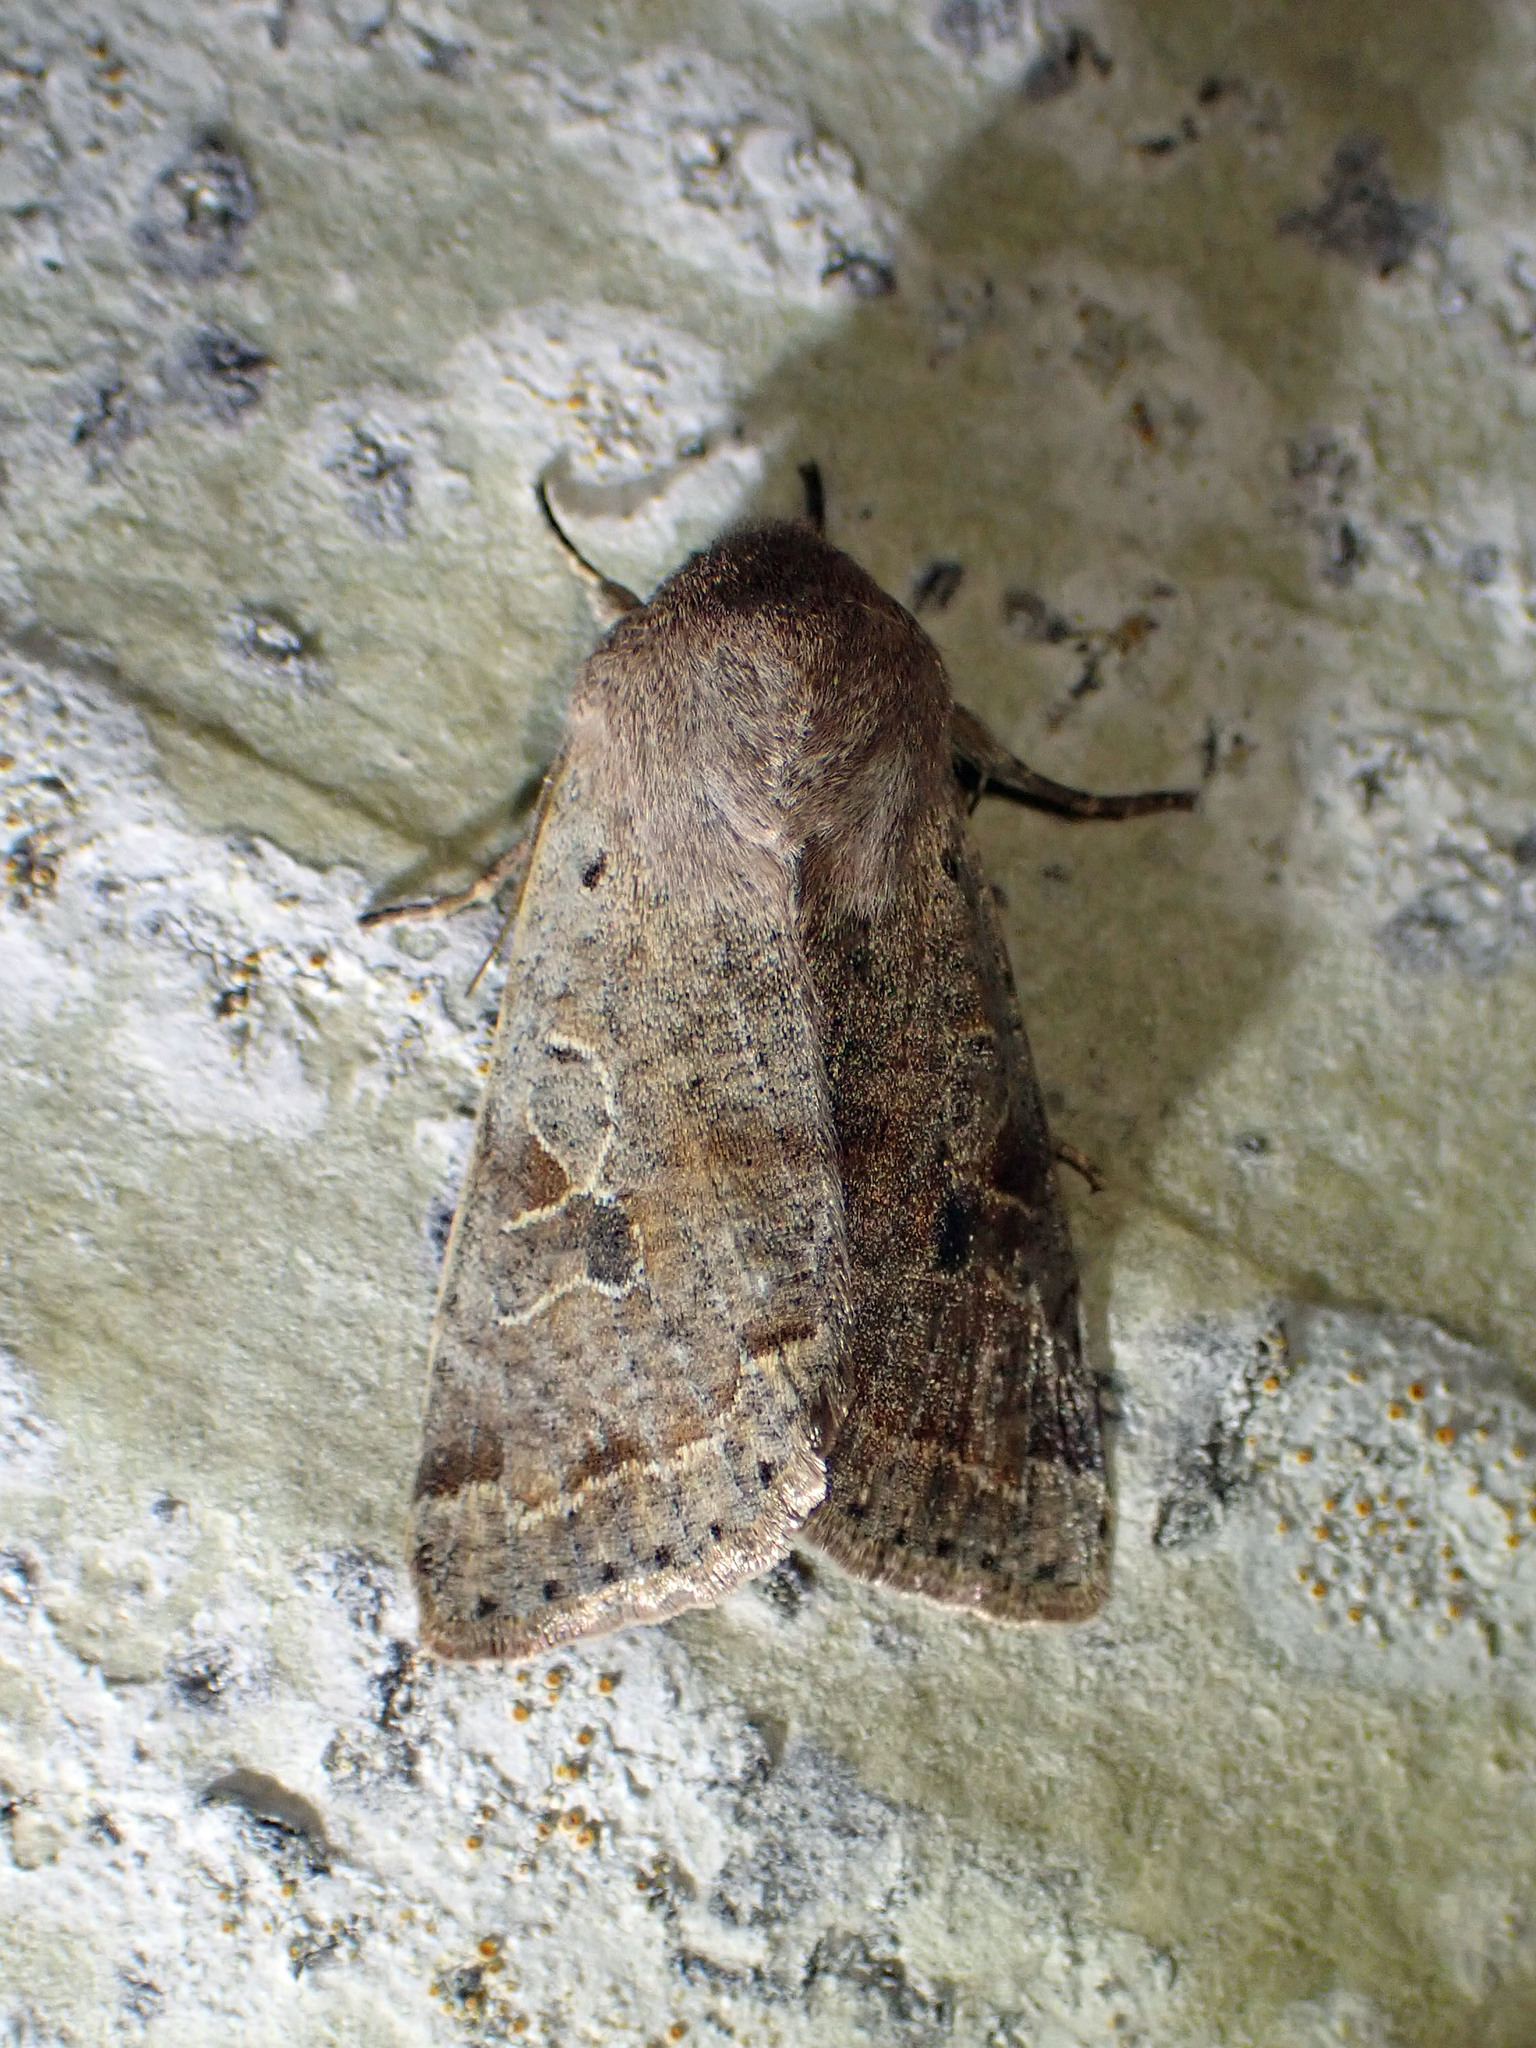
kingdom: Animalia
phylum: Arthropoda
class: Insecta
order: Lepidoptera
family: Noctuidae
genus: Orthosia
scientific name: Orthosia hibisci
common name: Green fruitworm
